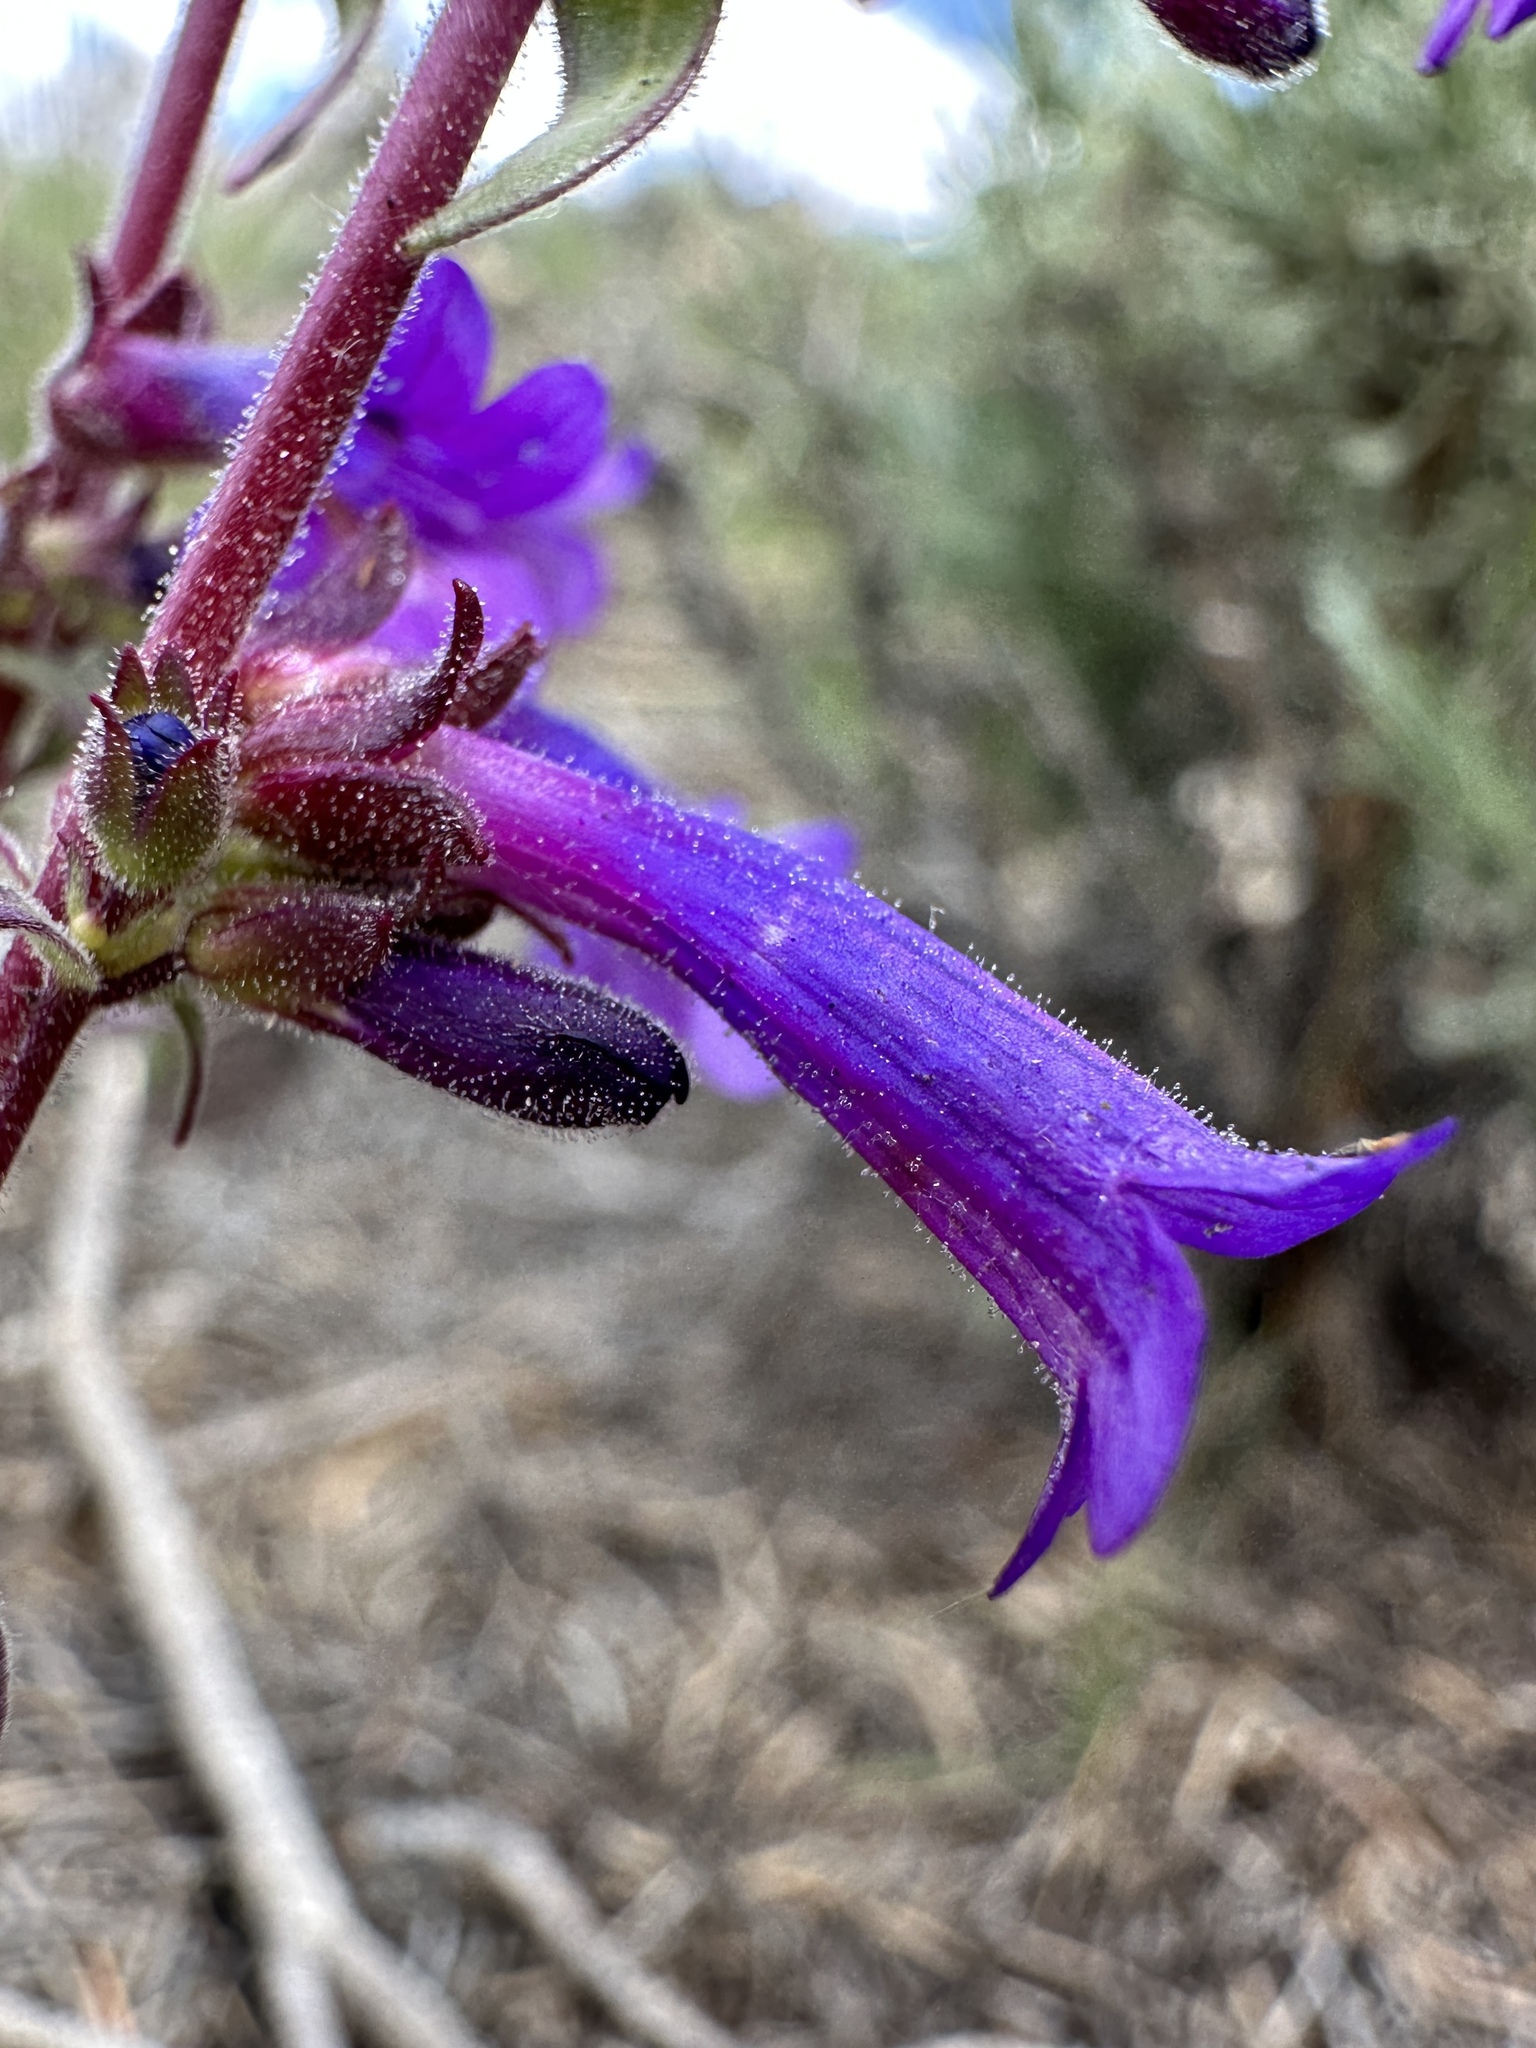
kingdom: Plantae
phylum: Tracheophyta
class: Magnoliopsida
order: Lamiales
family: Plantaginaceae
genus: Penstemon
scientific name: Penstemon humilis
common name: Low penstemon
